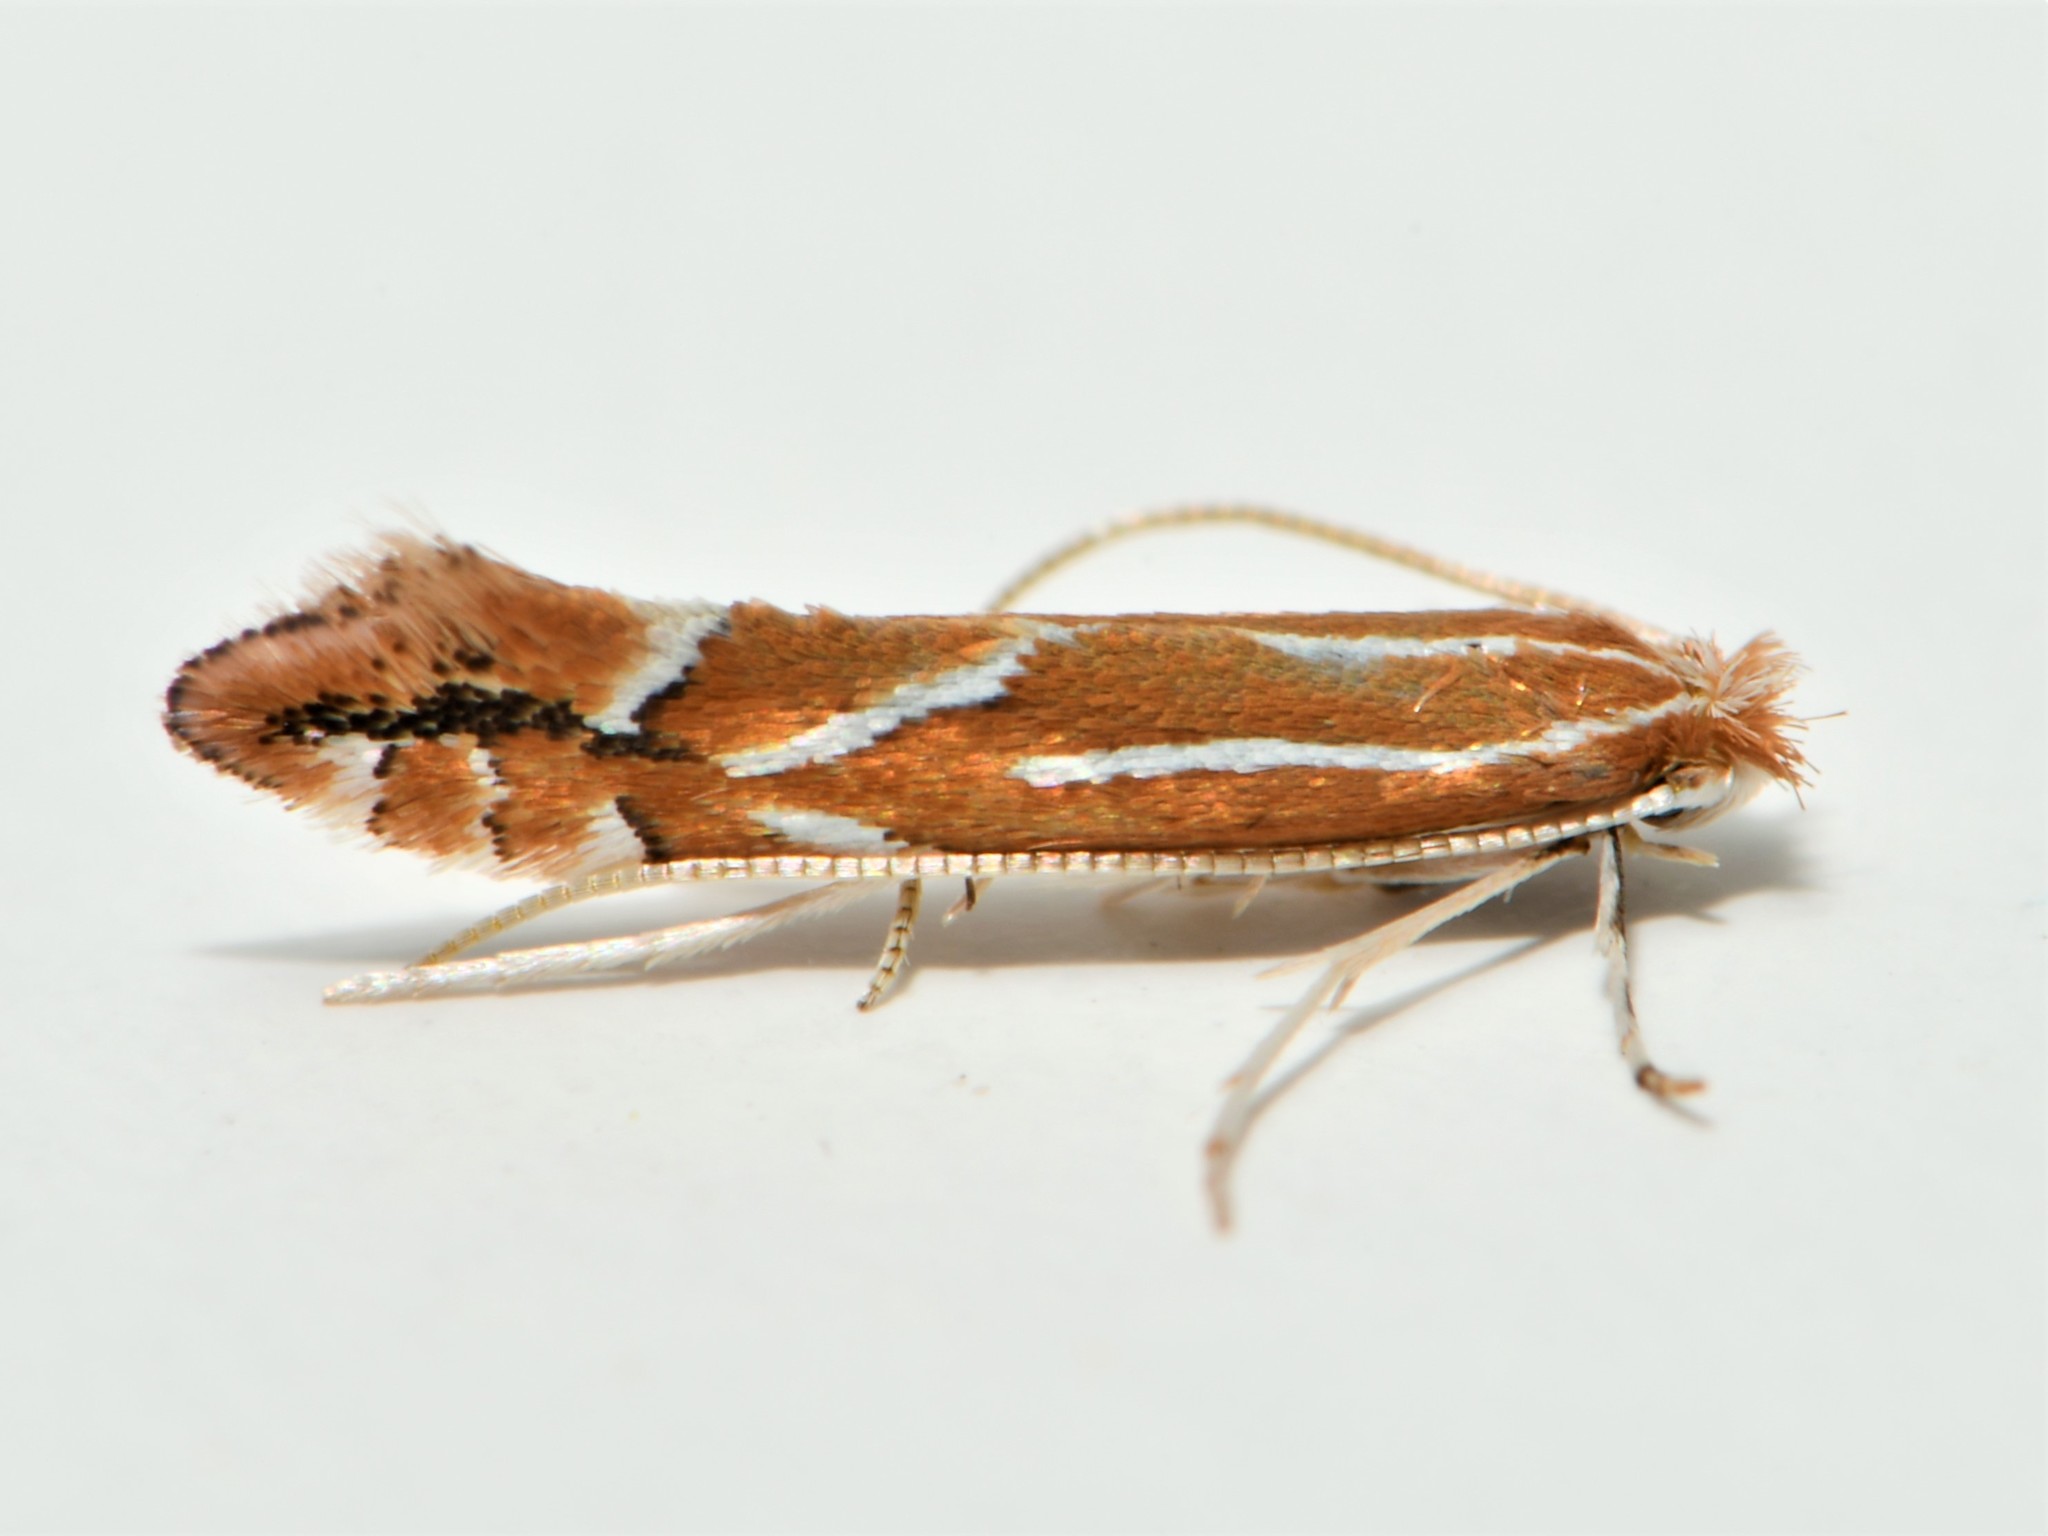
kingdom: Animalia
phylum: Arthropoda
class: Insecta
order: Lepidoptera
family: Gracillariidae
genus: Phyllonorycter
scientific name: Phyllonorycter leucographella
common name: Firethorn leaf-miner
